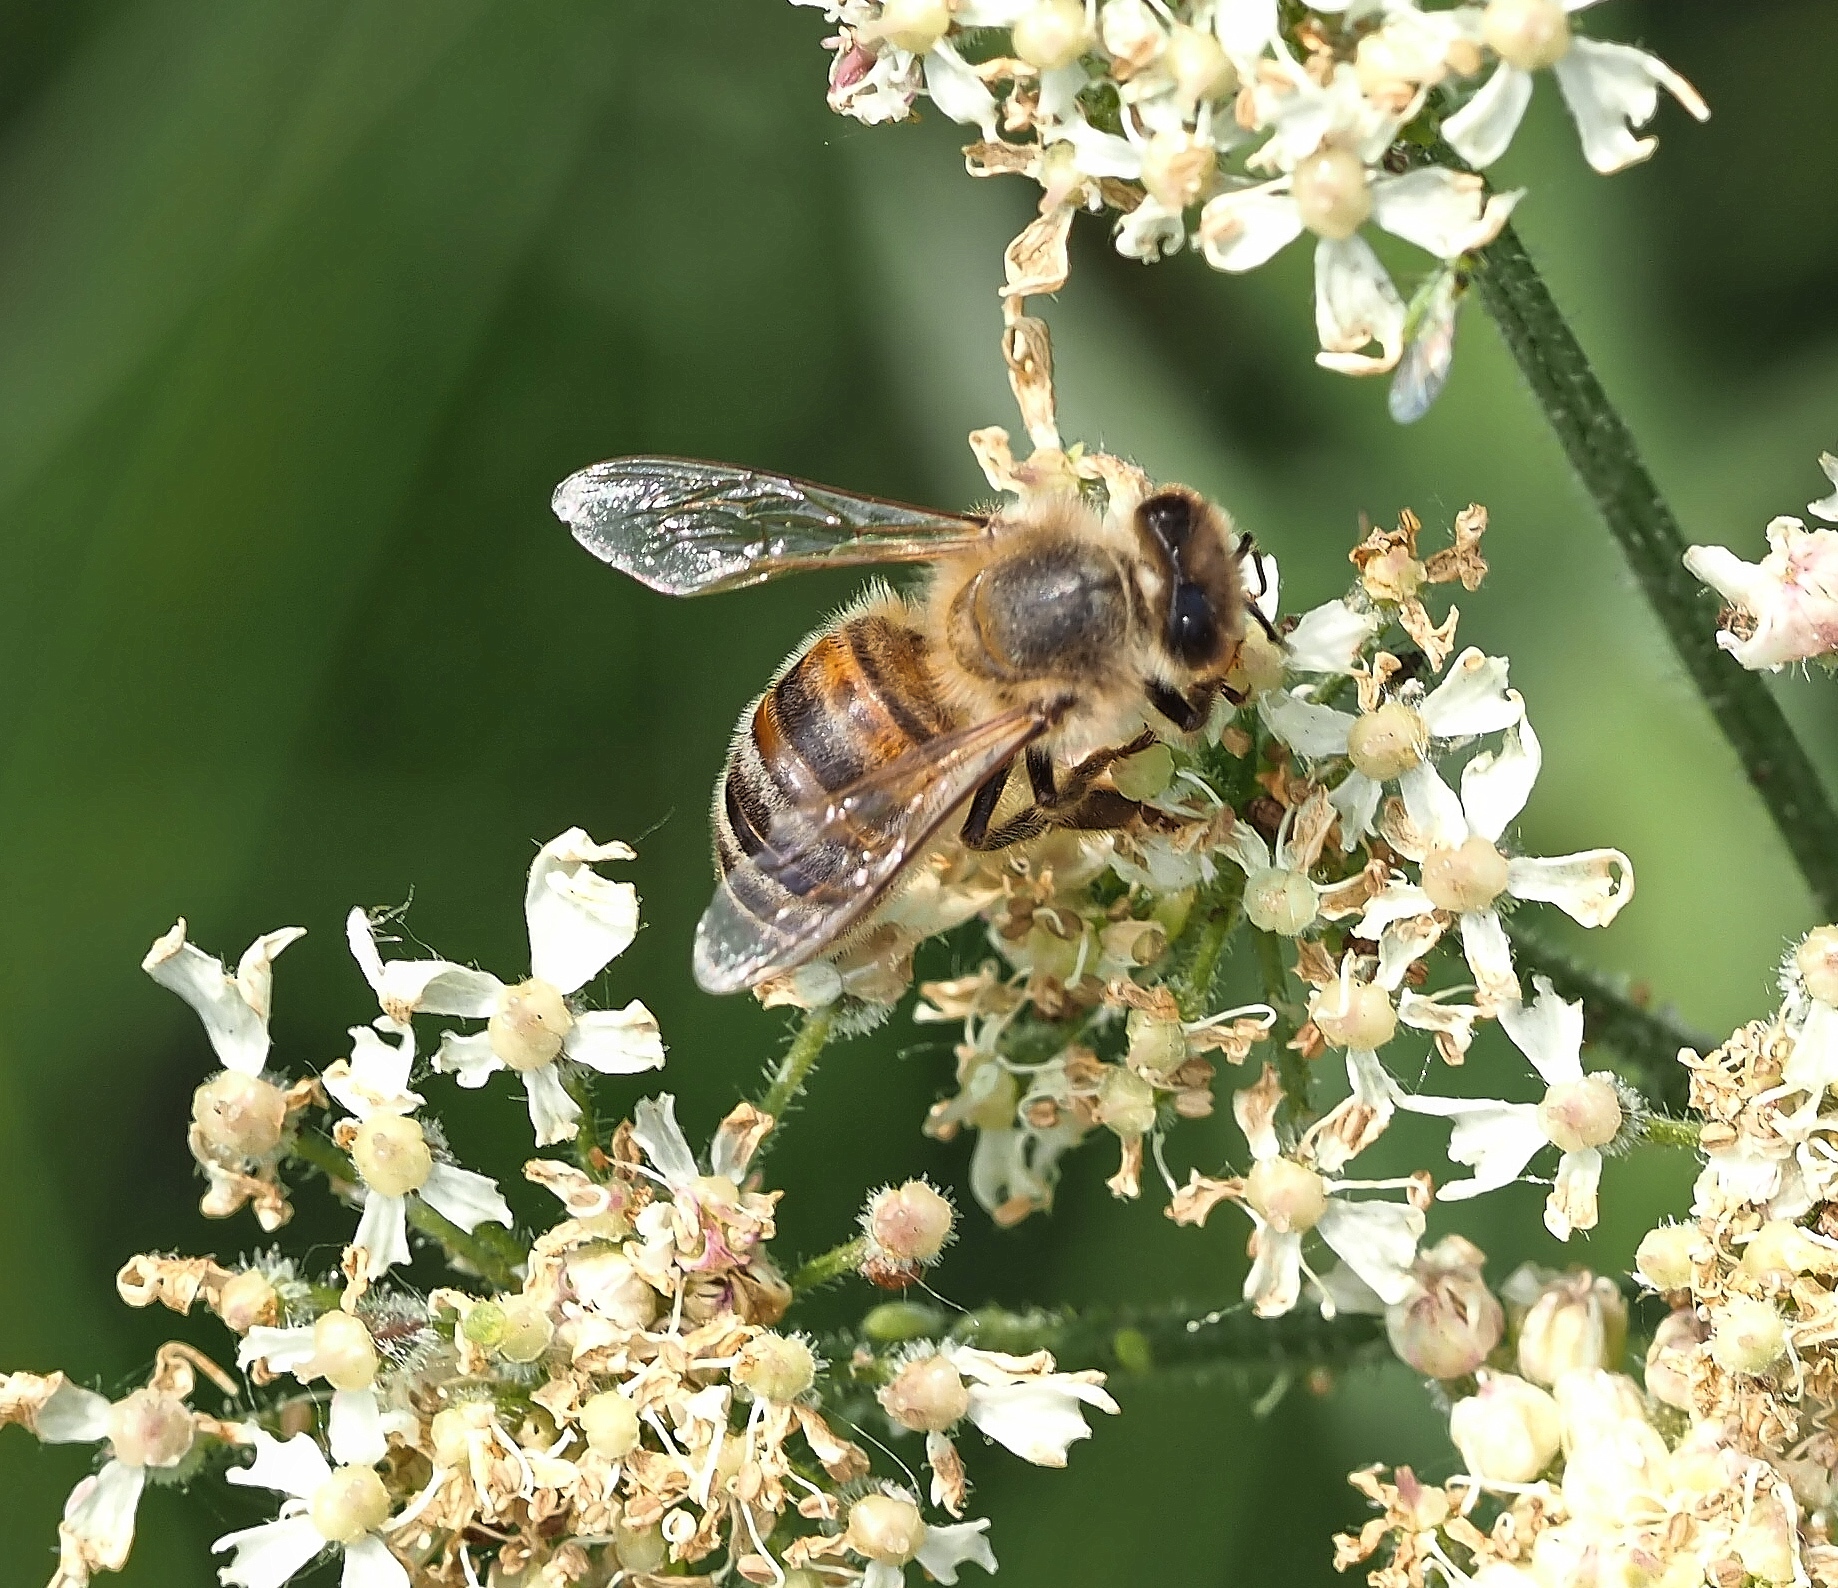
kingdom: Animalia
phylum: Arthropoda
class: Insecta
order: Hymenoptera
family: Apidae
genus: Apis
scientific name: Apis mellifera
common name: Honey bee
